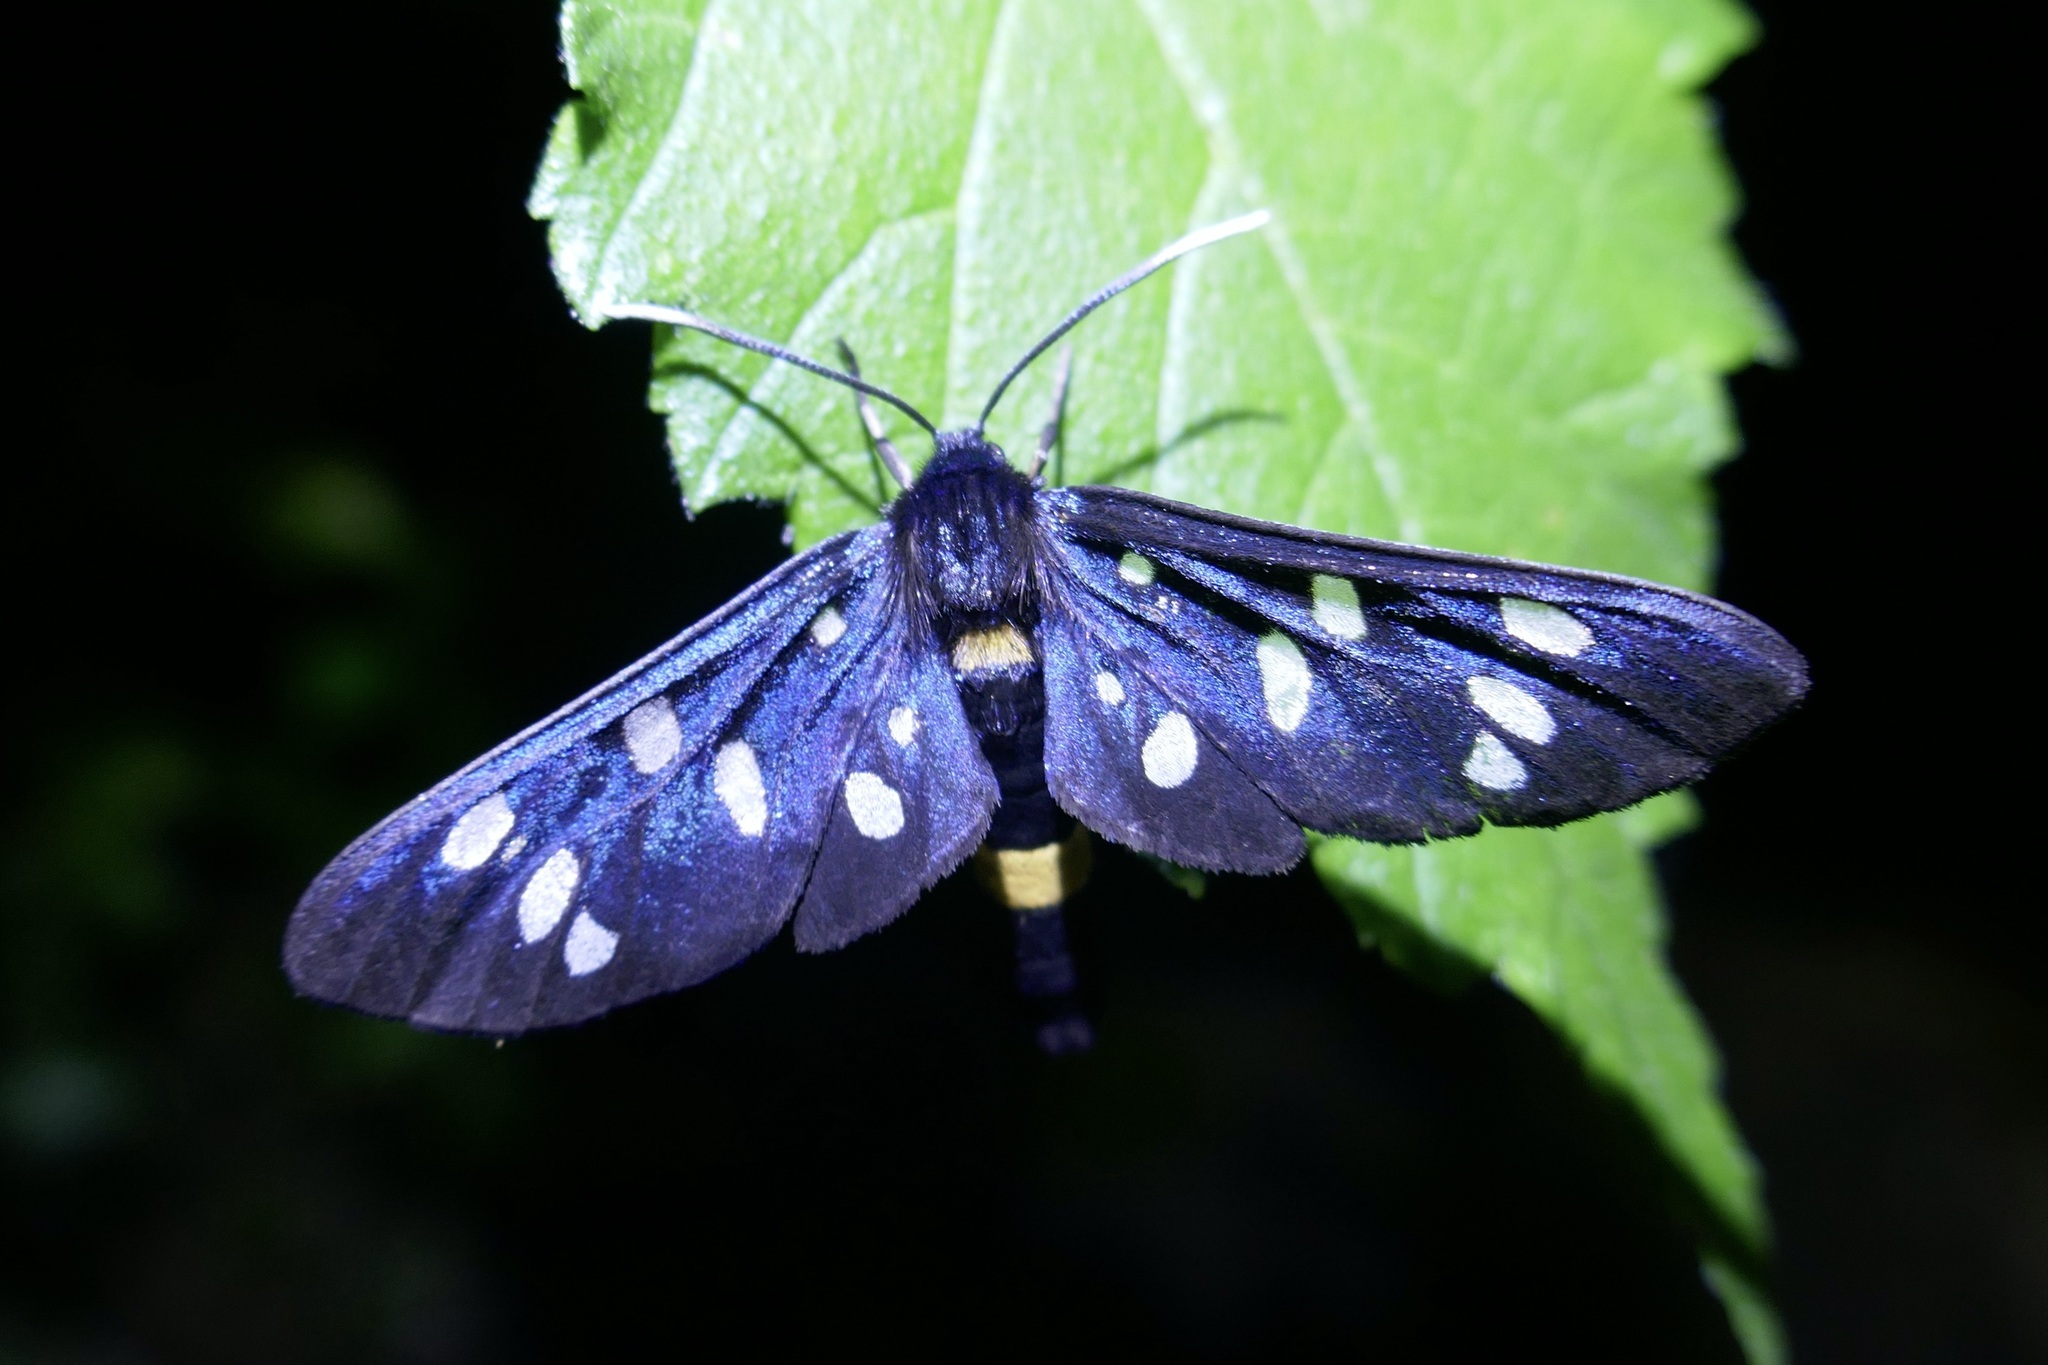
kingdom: Animalia
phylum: Arthropoda
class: Insecta
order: Lepidoptera
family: Erebidae
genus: Amata
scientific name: Amata phegea
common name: Nine-spotted
